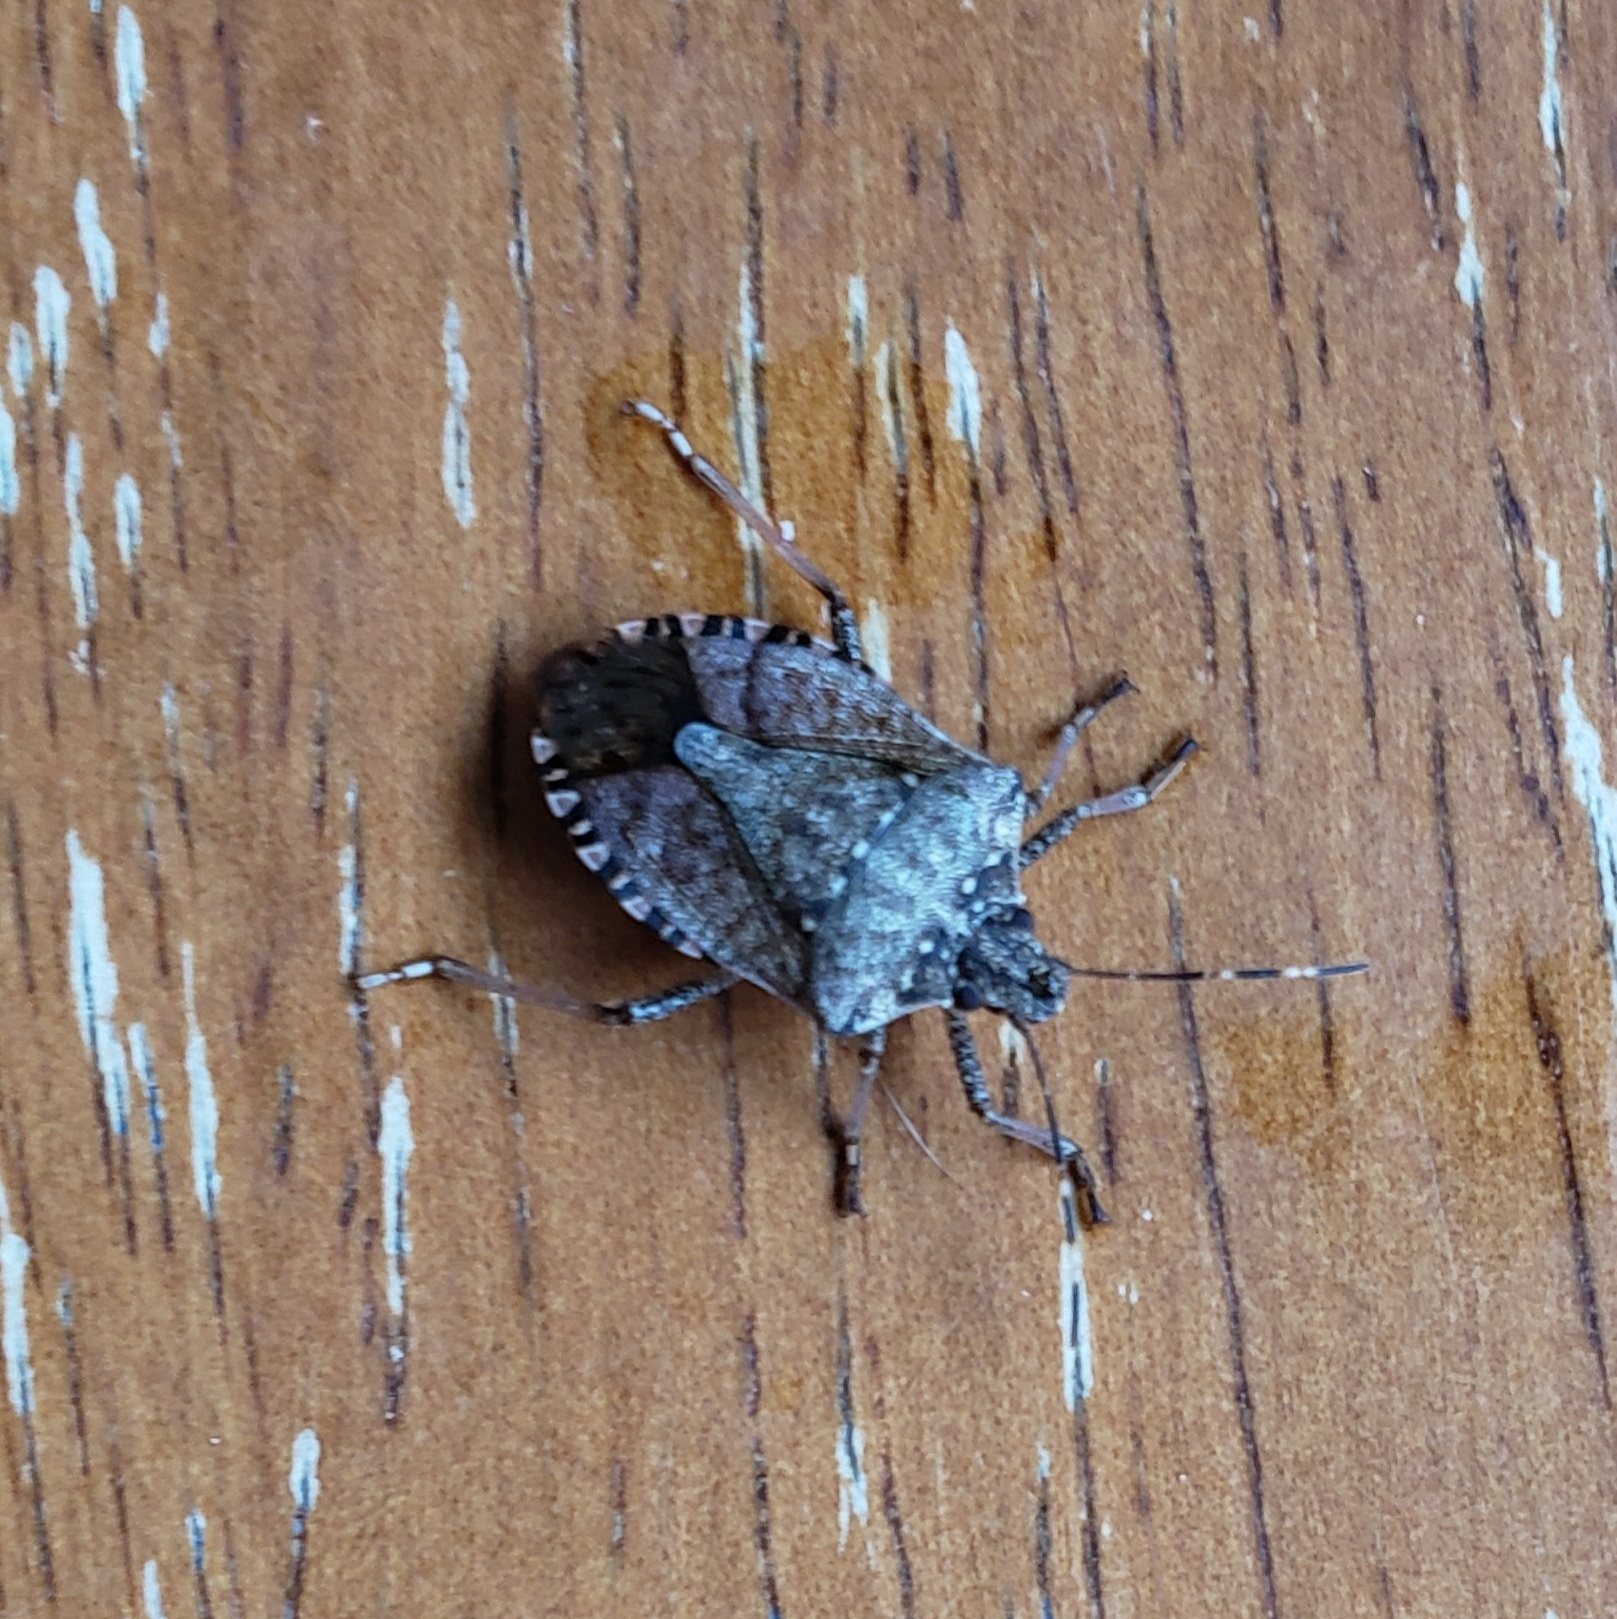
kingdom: Animalia
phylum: Arthropoda
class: Insecta
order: Hemiptera
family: Pentatomidae
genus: Halyomorpha
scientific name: Halyomorpha halys
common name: Brown marmorated stink bug
